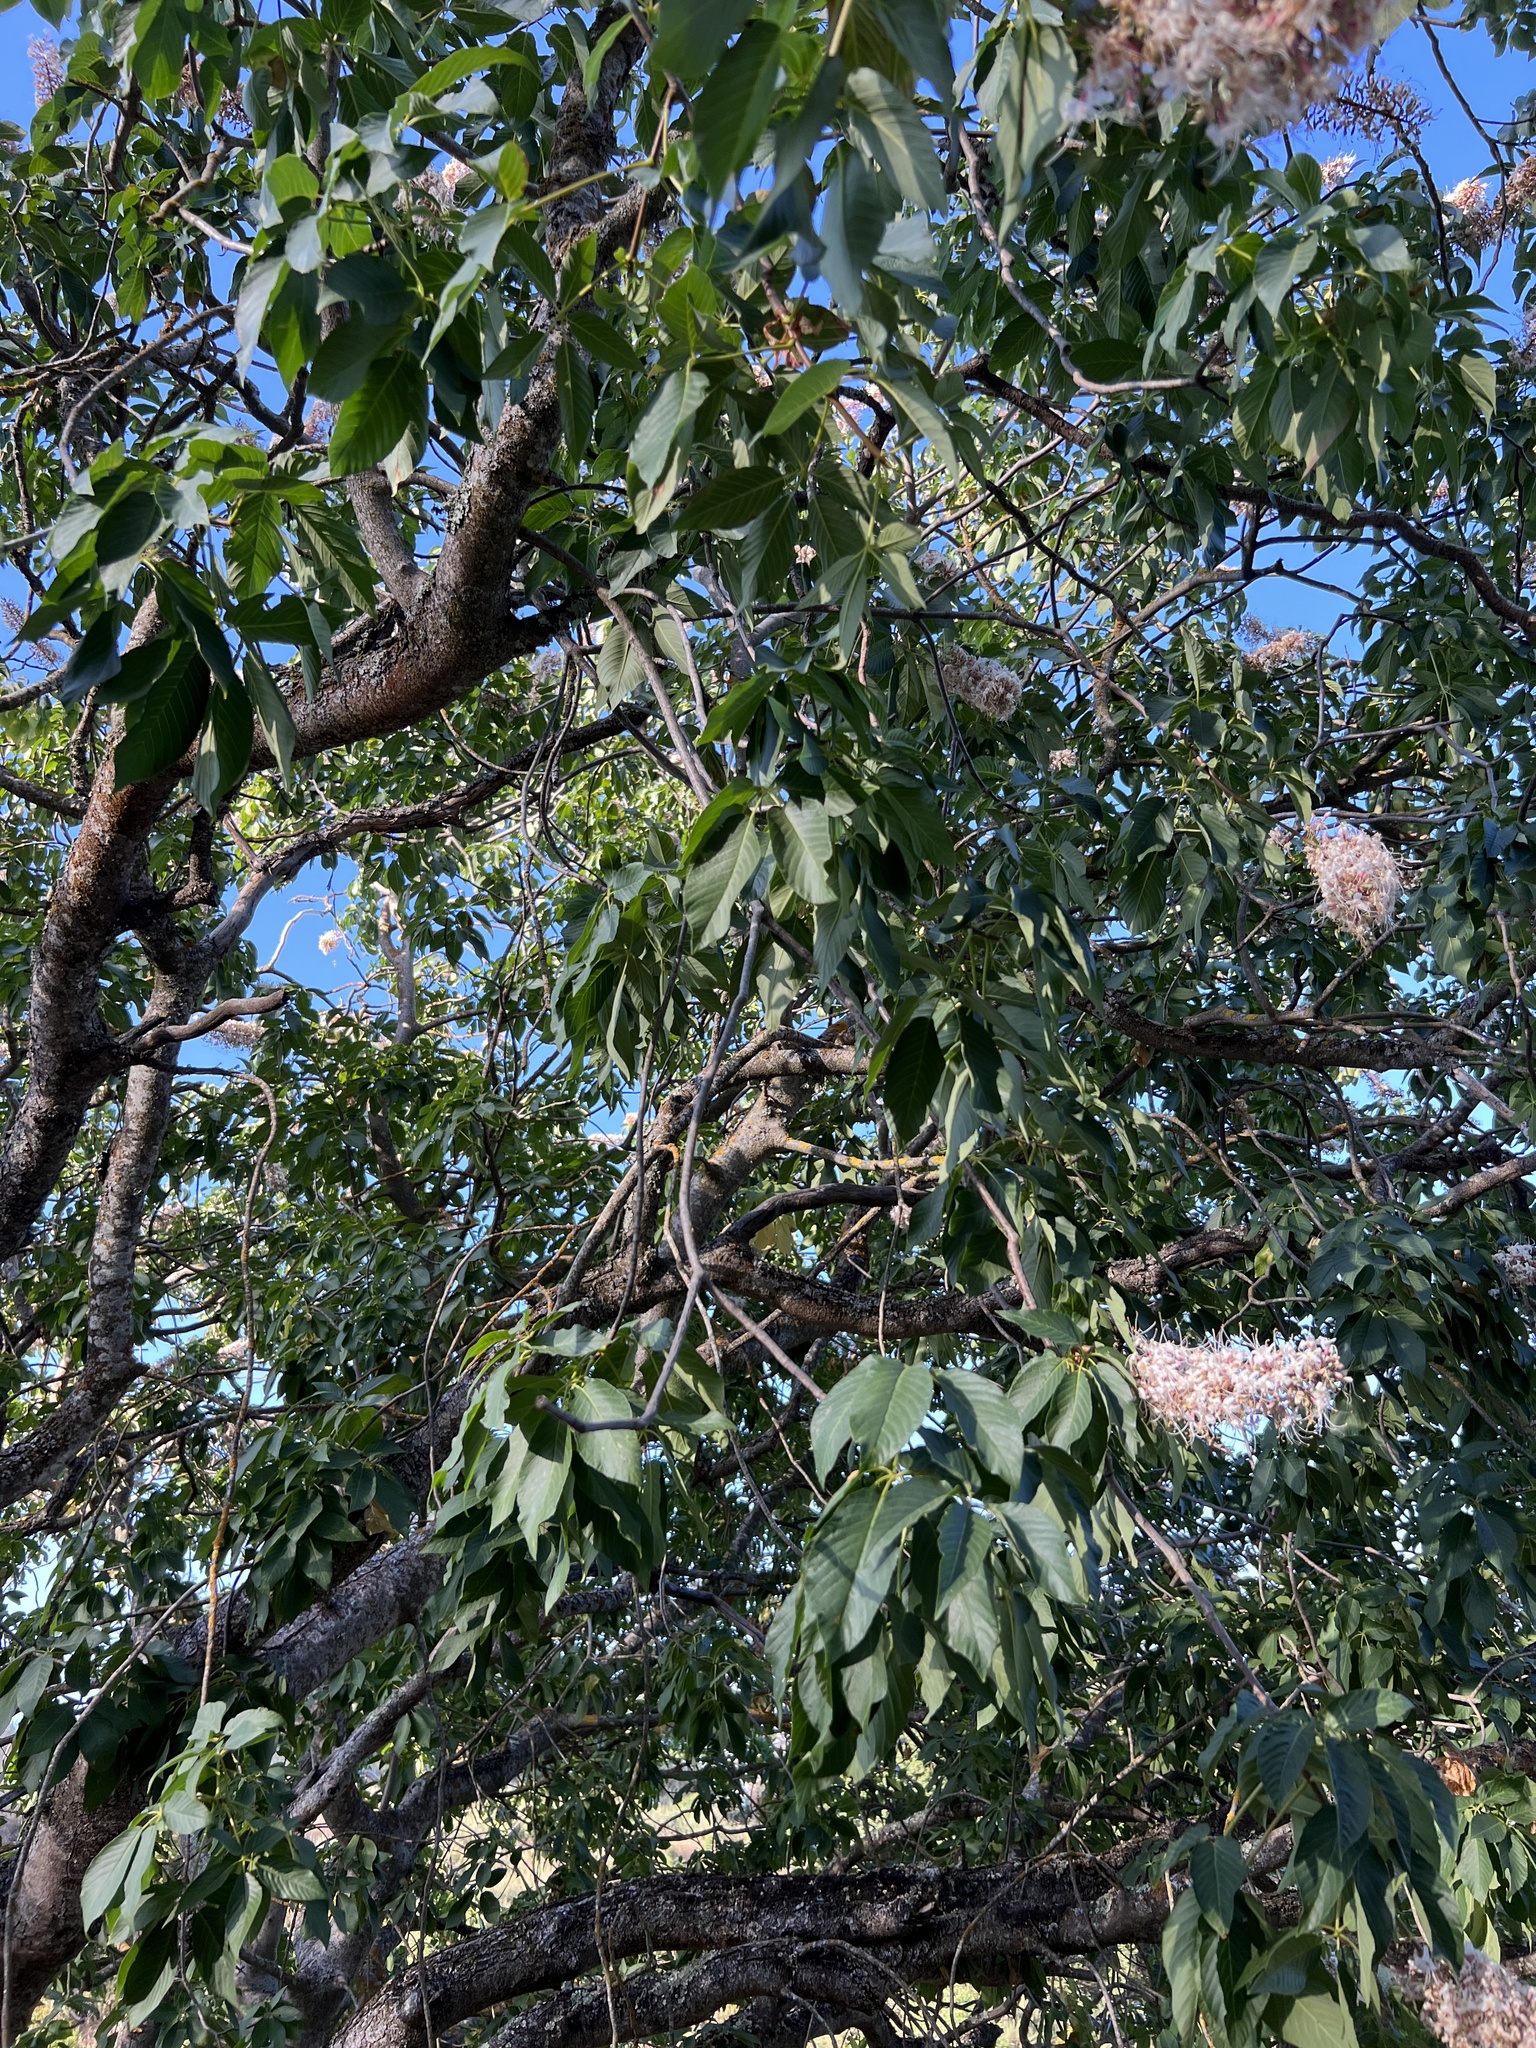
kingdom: Plantae
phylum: Tracheophyta
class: Magnoliopsida
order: Sapindales
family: Sapindaceae
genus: Aesculus
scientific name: Aesculus californica
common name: California buckeye
